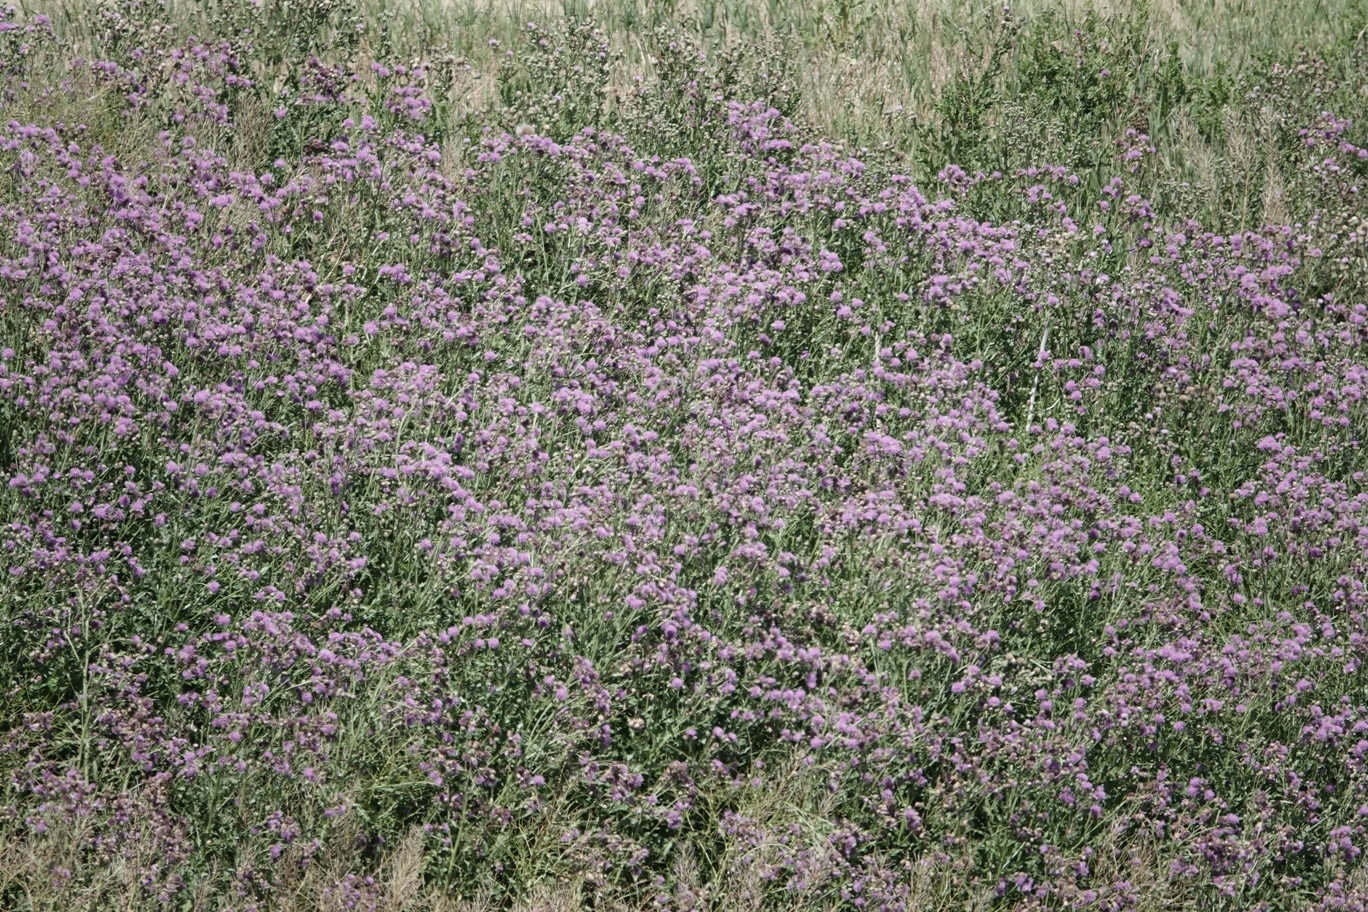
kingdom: Plantae
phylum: Tracheophyta
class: Magnoliopsida
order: Asterales
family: Asteraceae
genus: Cirsium
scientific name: Cirsium arvense
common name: Creeping thistle
